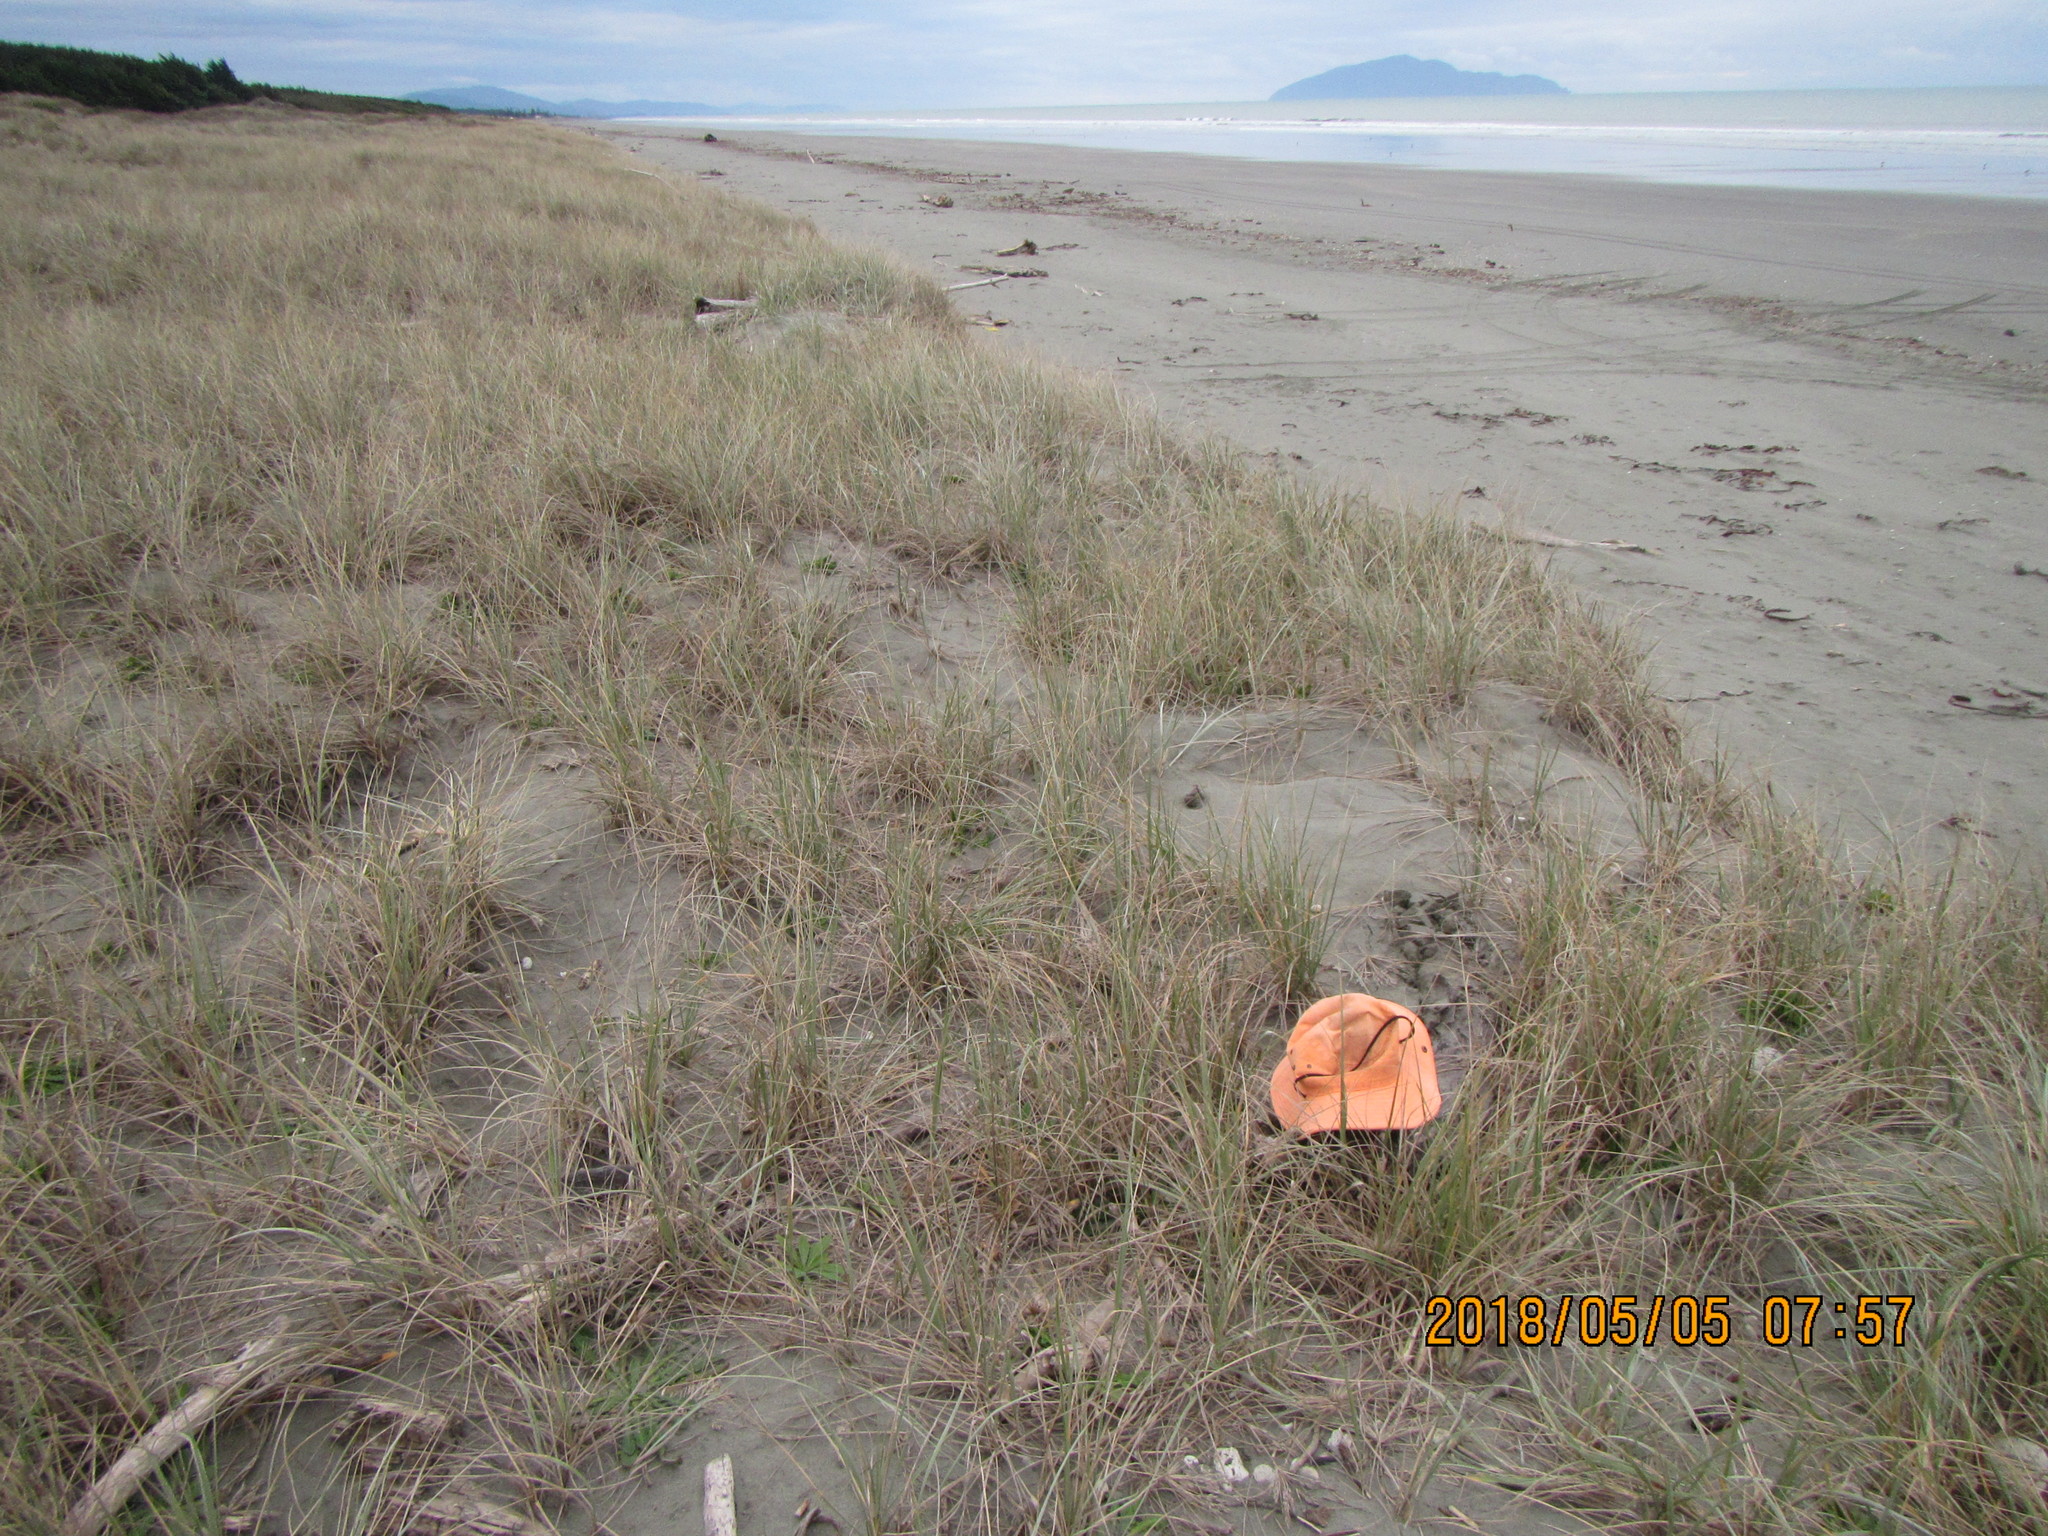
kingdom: Animalia
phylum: Arthropoda
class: Arachnida
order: Araneae
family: Theridiidae
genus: Steatoda
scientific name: Steatoda capensis
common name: Cobweb weaver
